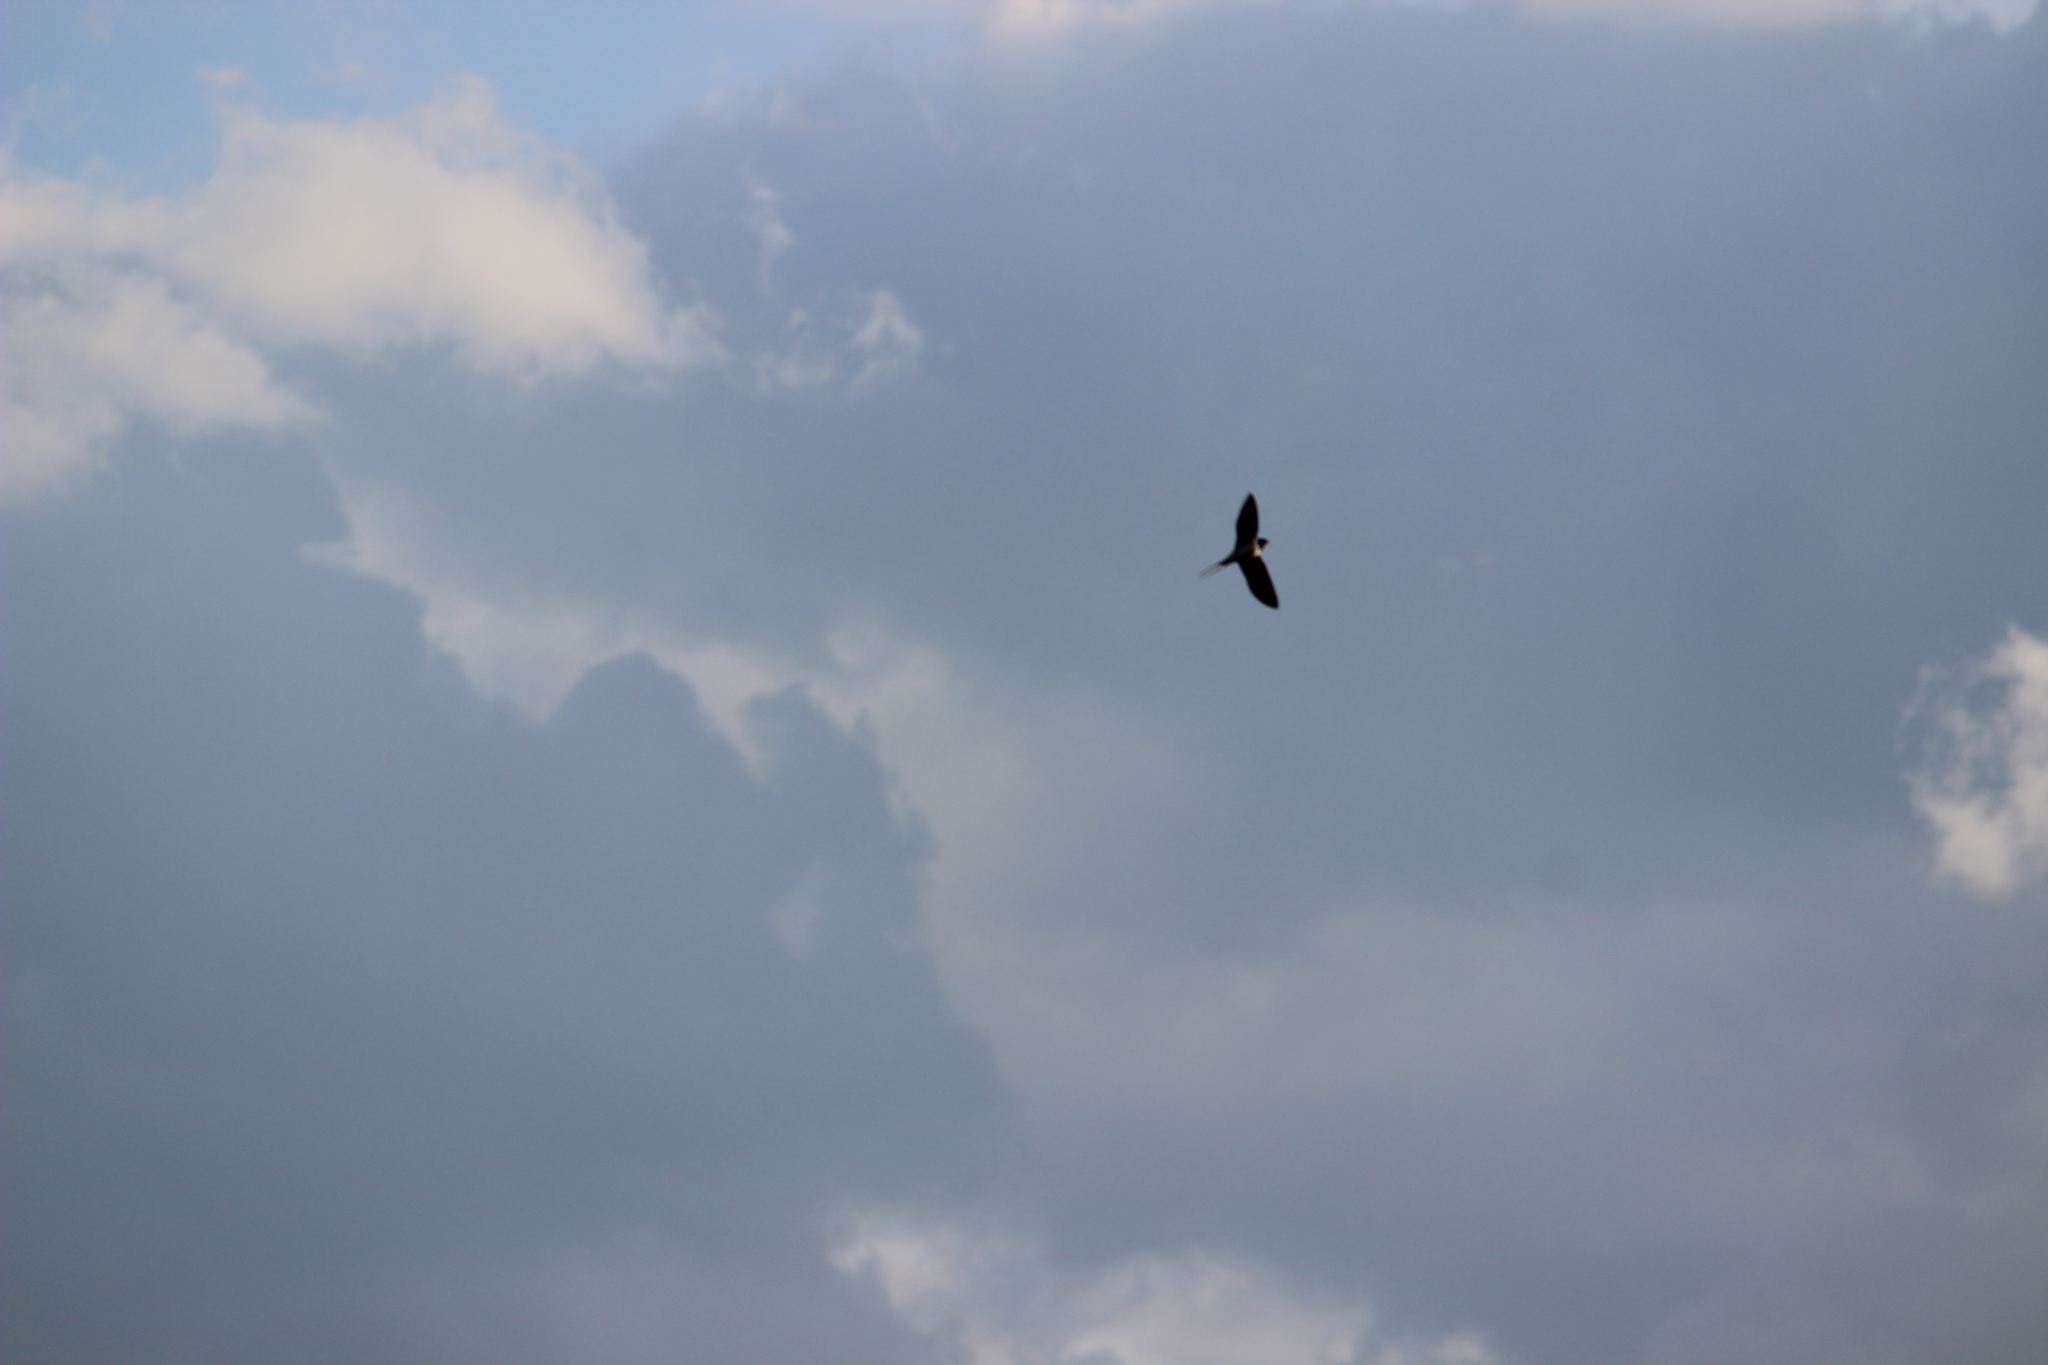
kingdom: Animalia
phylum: Chordata
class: Aves
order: Passeriformes
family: Hirundinidae
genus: Hirundo
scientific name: Hirundo rustica
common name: Barn swallow
